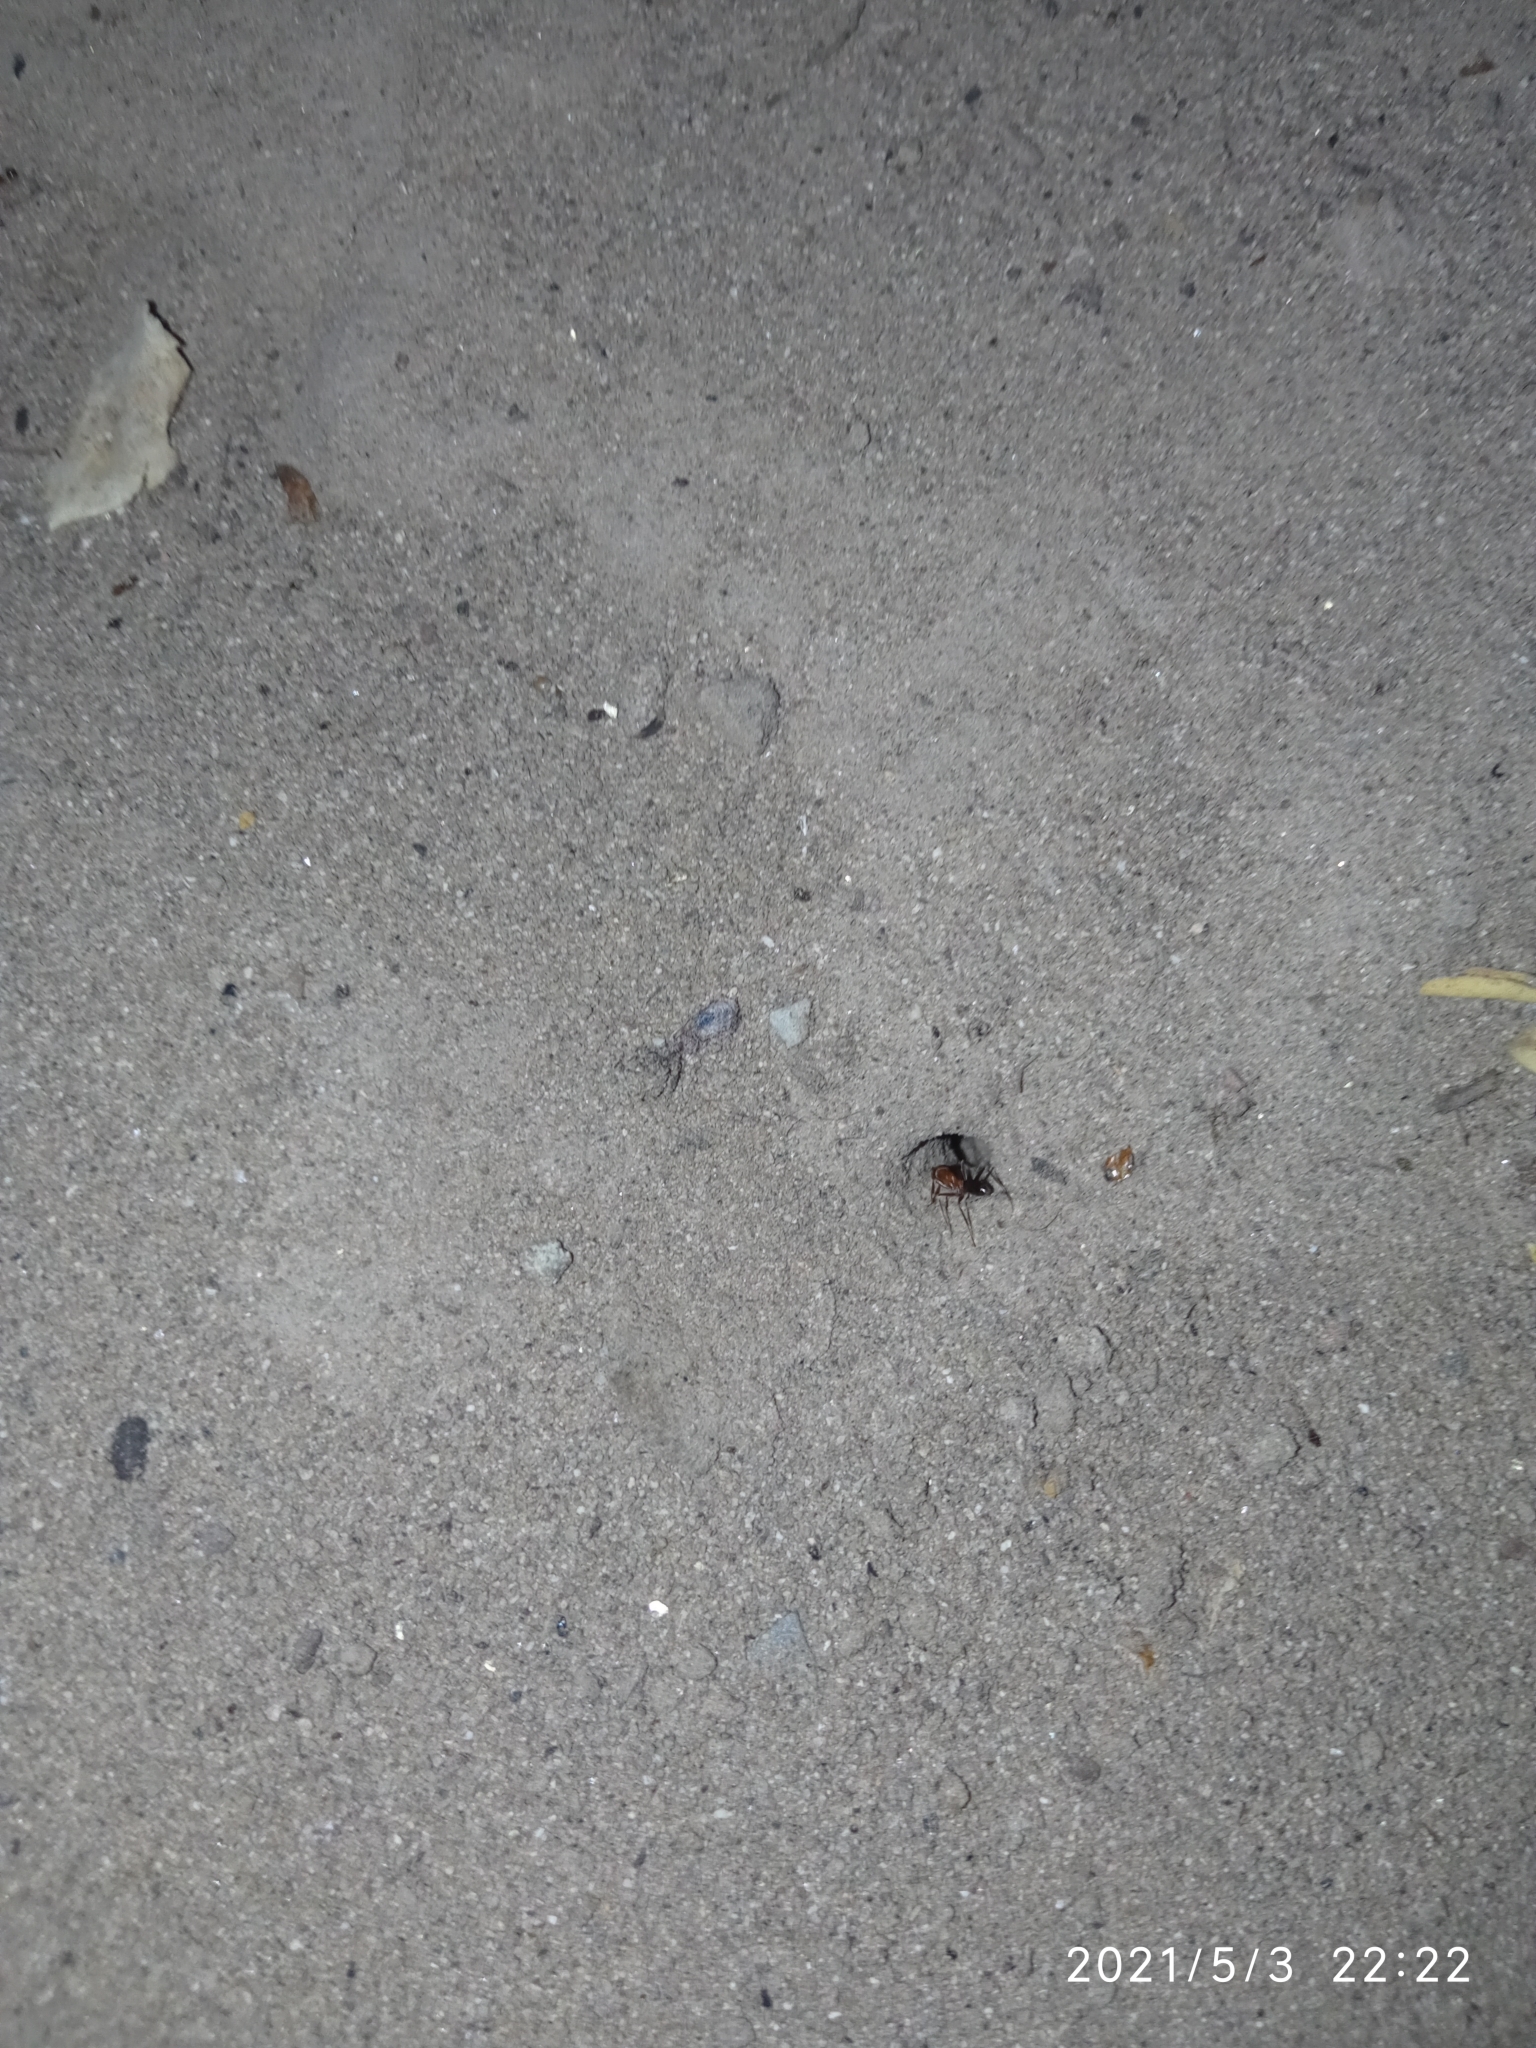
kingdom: Animalia
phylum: Arthropoda
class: Insecta
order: Hymenoptera
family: Formicidae
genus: Dorymyrmex
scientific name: Dorymyrmex bicolor
